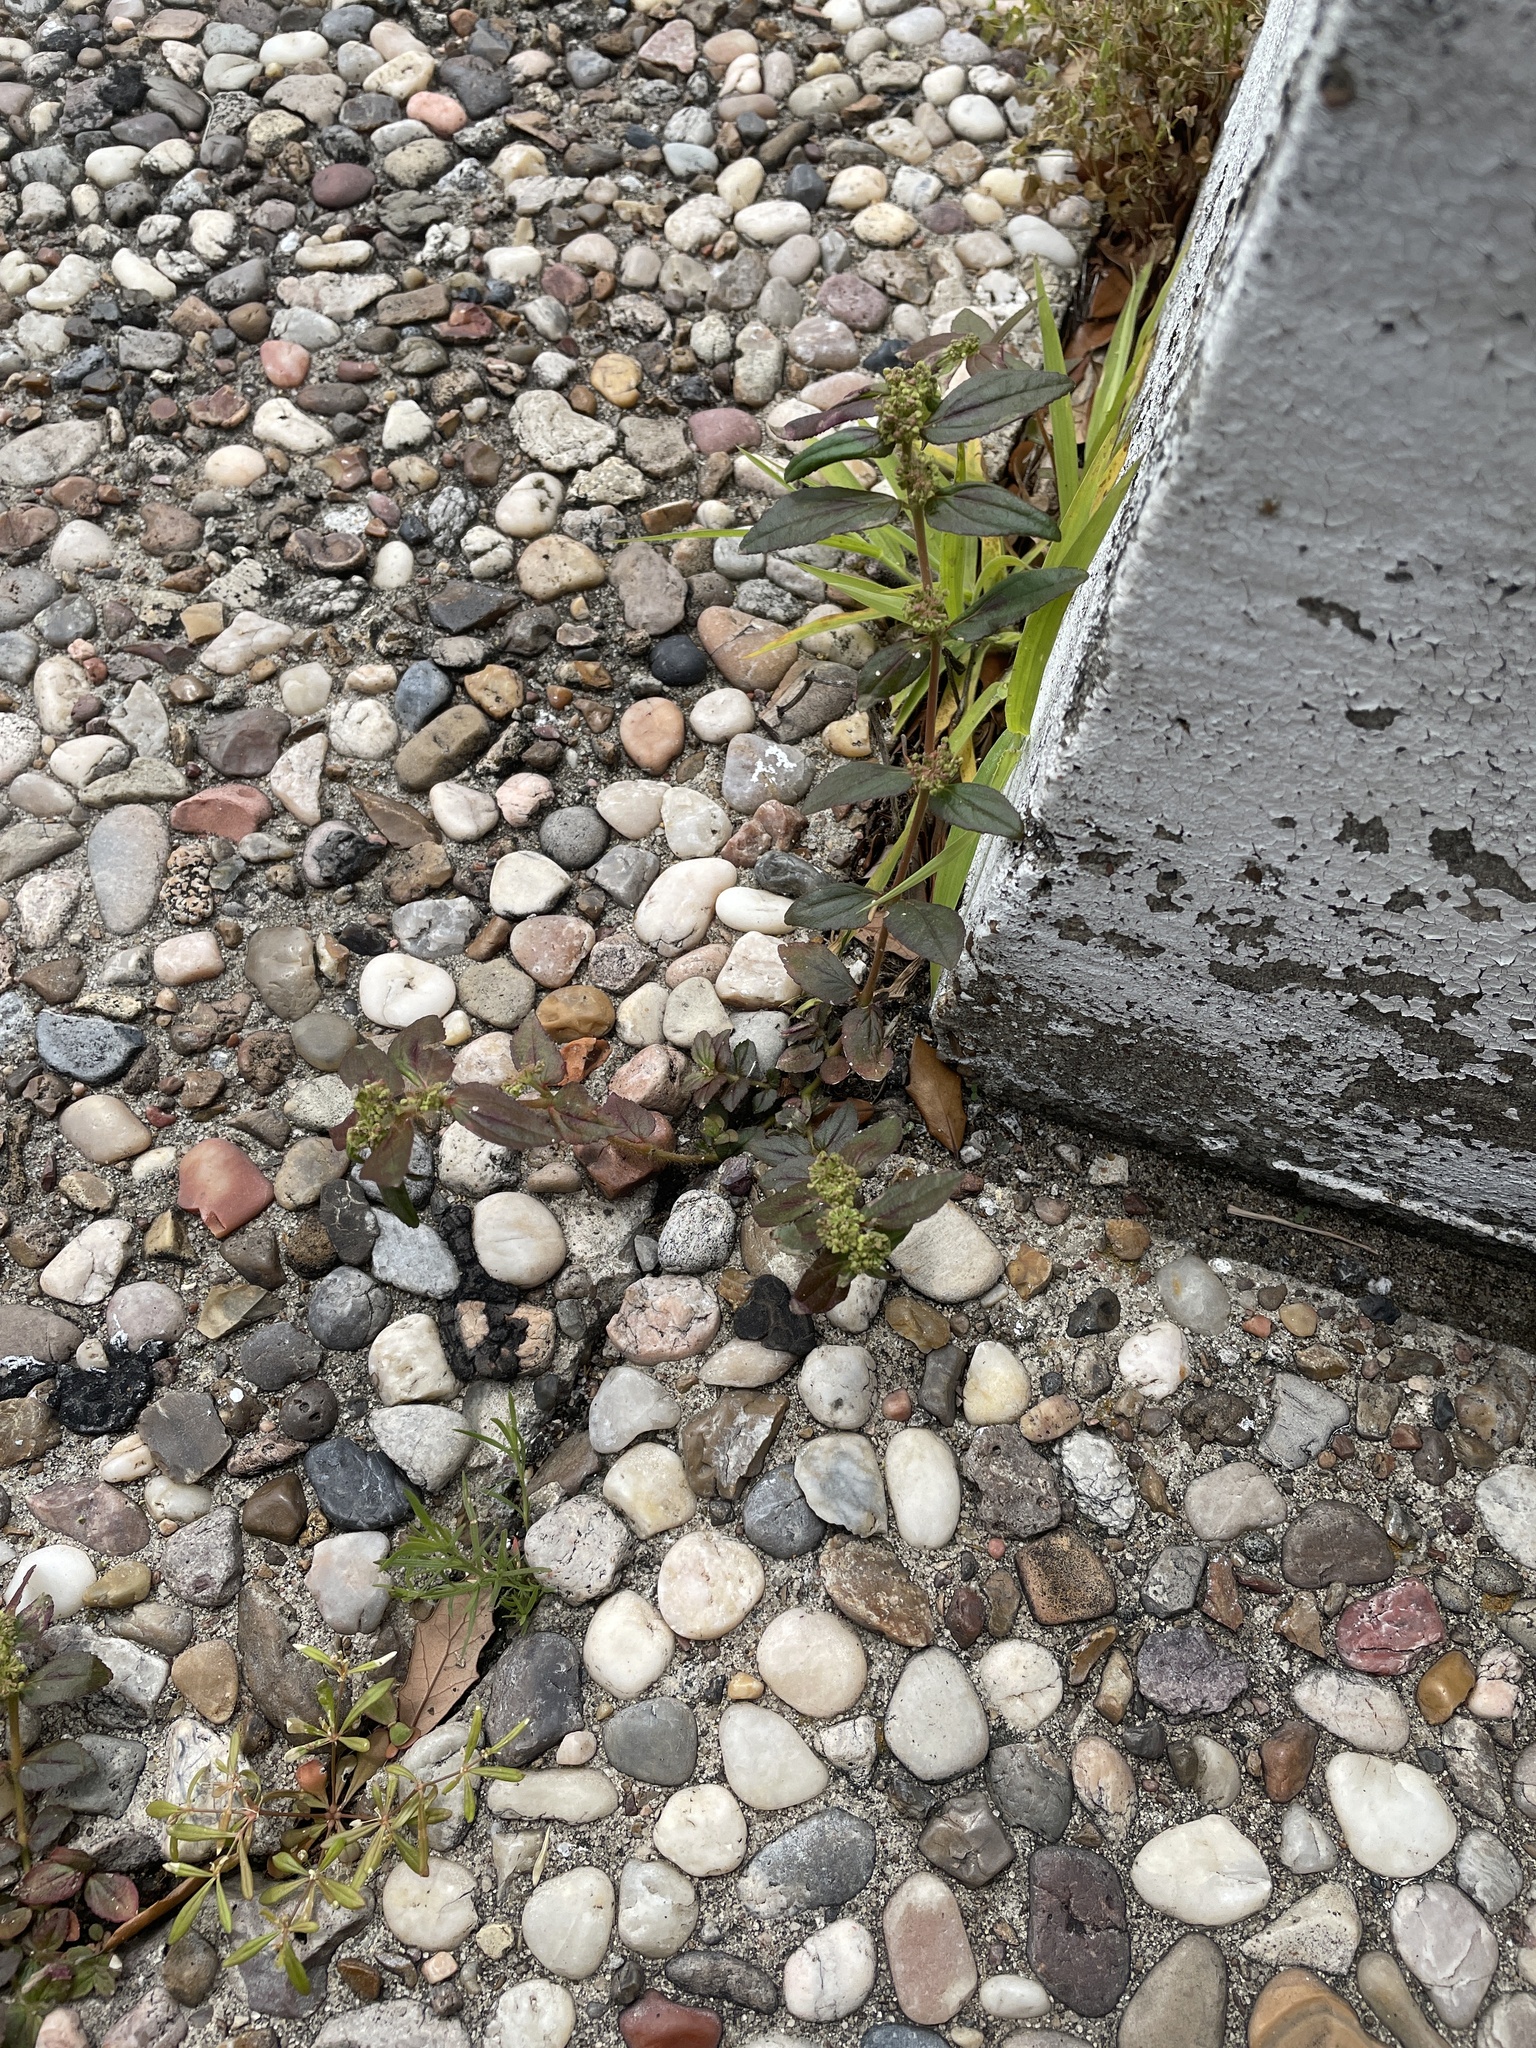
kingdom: Plantae
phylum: Tracheophyta
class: Magnoliopsida
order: Malpighiales
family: Euphorbiaceae
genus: Euphorbia
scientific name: Euphorbia hirta
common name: Pillpod sandmat
